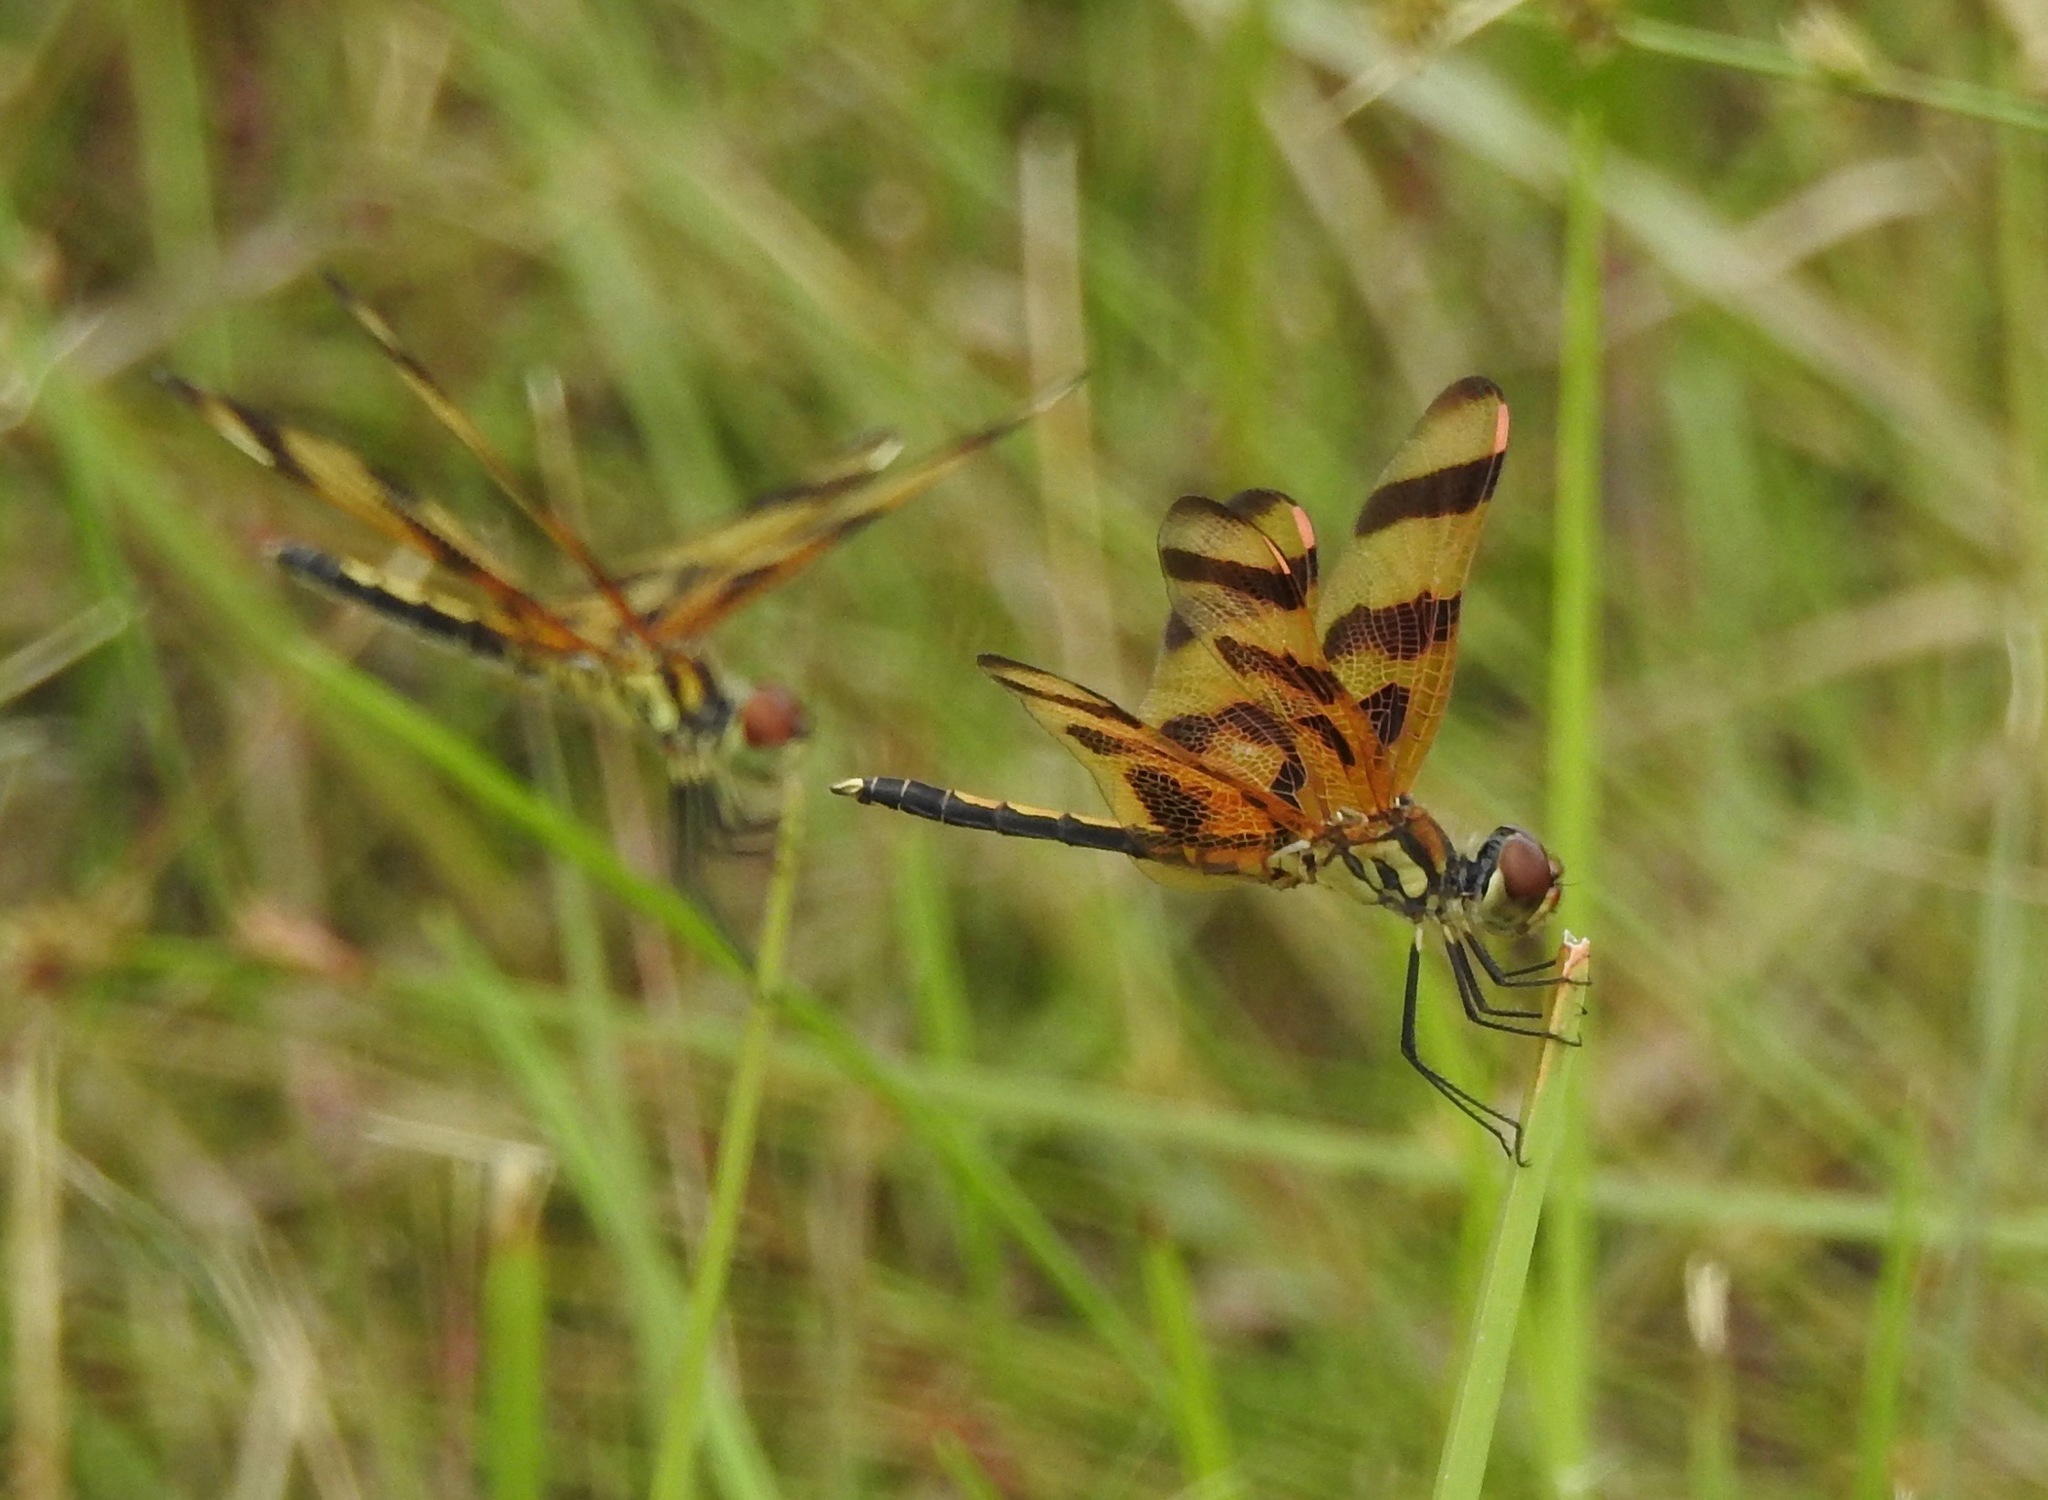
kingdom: Animalia
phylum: Arthropoda
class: Insecta
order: Odonata
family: Libellulidae
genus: Celithemis
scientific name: Celithemis eponina
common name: Halloween pennant
